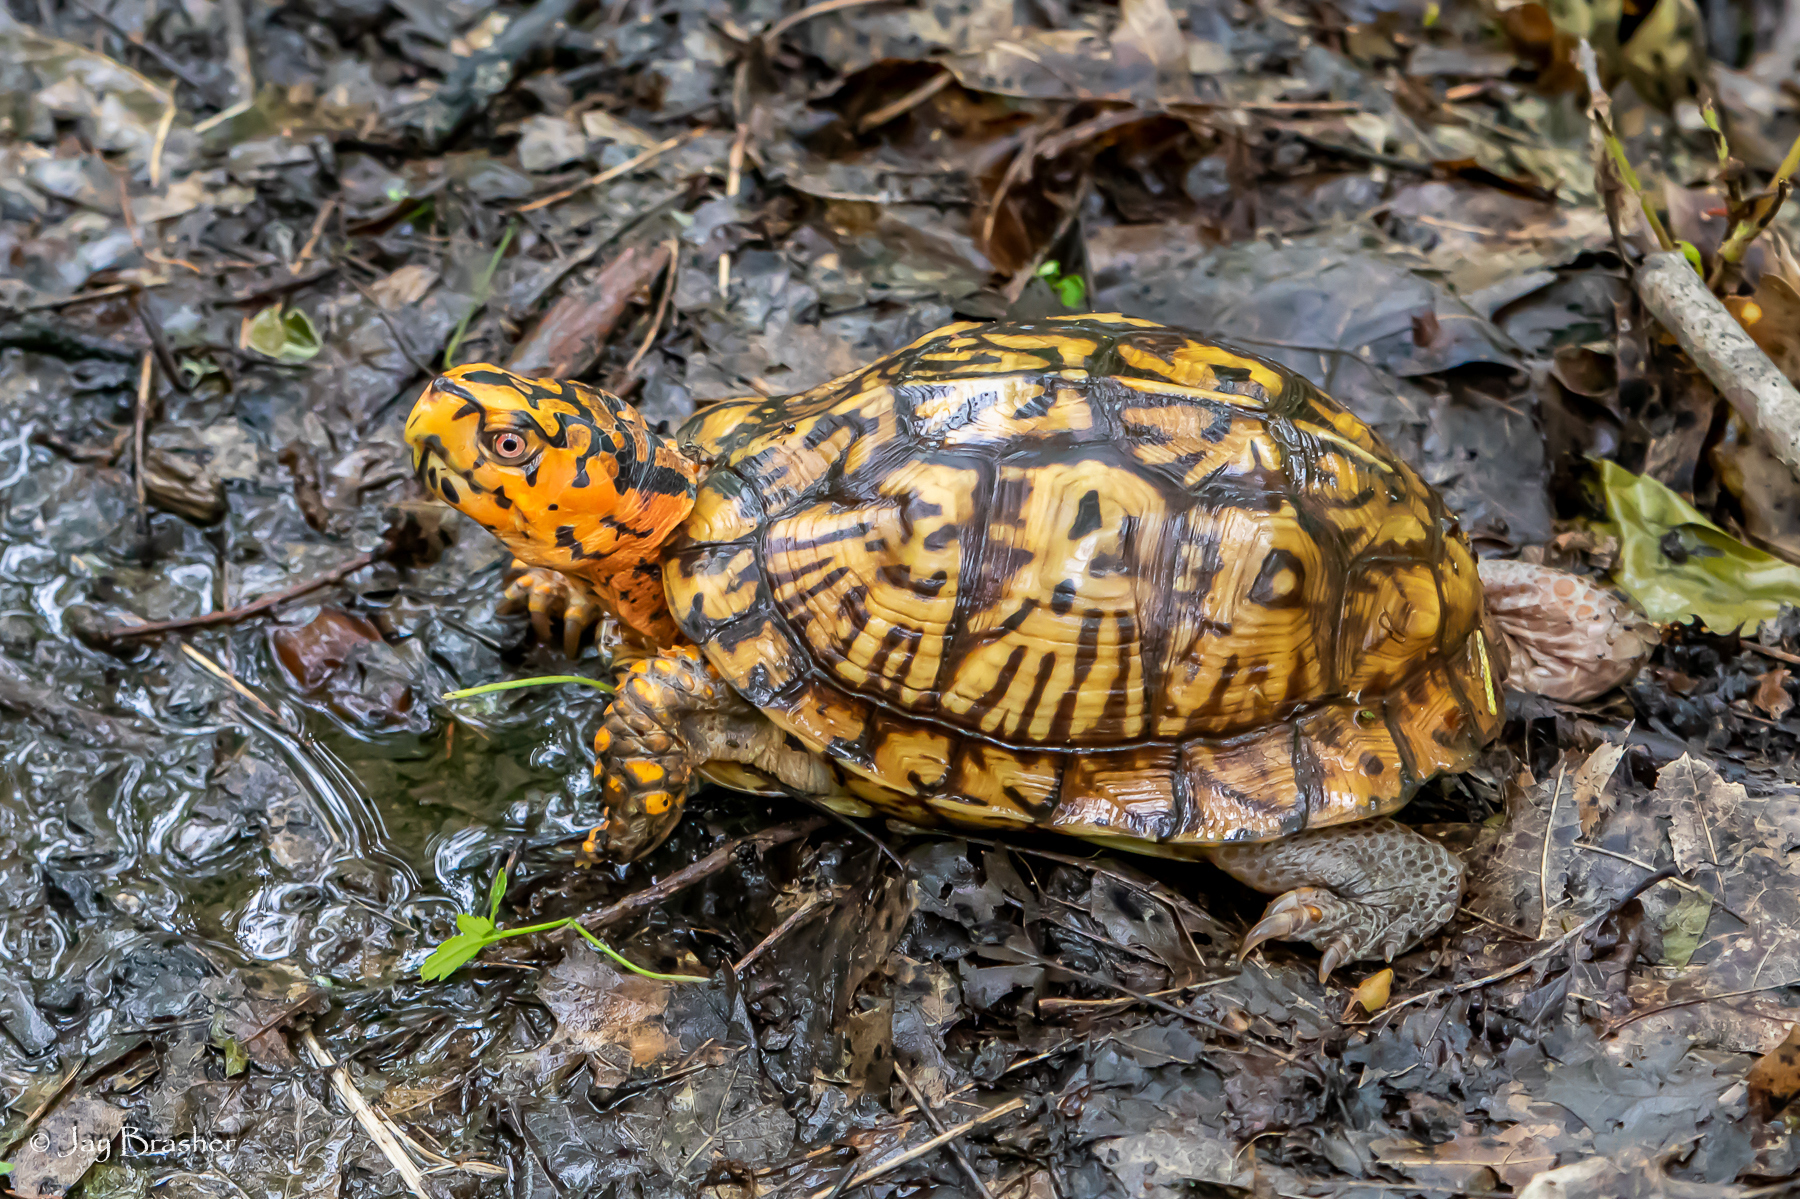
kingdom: Animalia
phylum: Chordata
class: Testudines
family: Emydidae
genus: Terrapene
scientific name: Terrapene carolina
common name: Common box turtle
